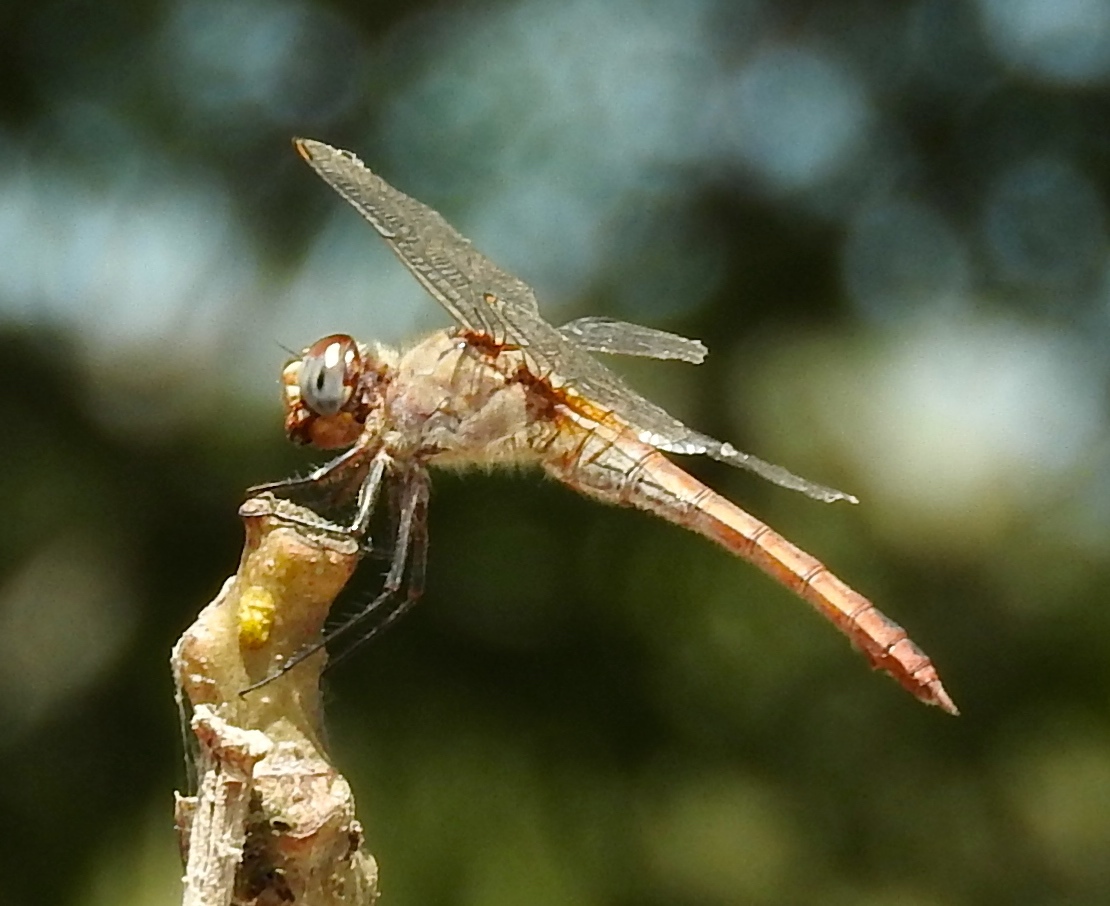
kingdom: Animalia
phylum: Arthropoda
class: Insecta
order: Odonata
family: Libellulidae
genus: Brachymesia
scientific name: Brachymesia furcata
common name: Red-taled pennant
